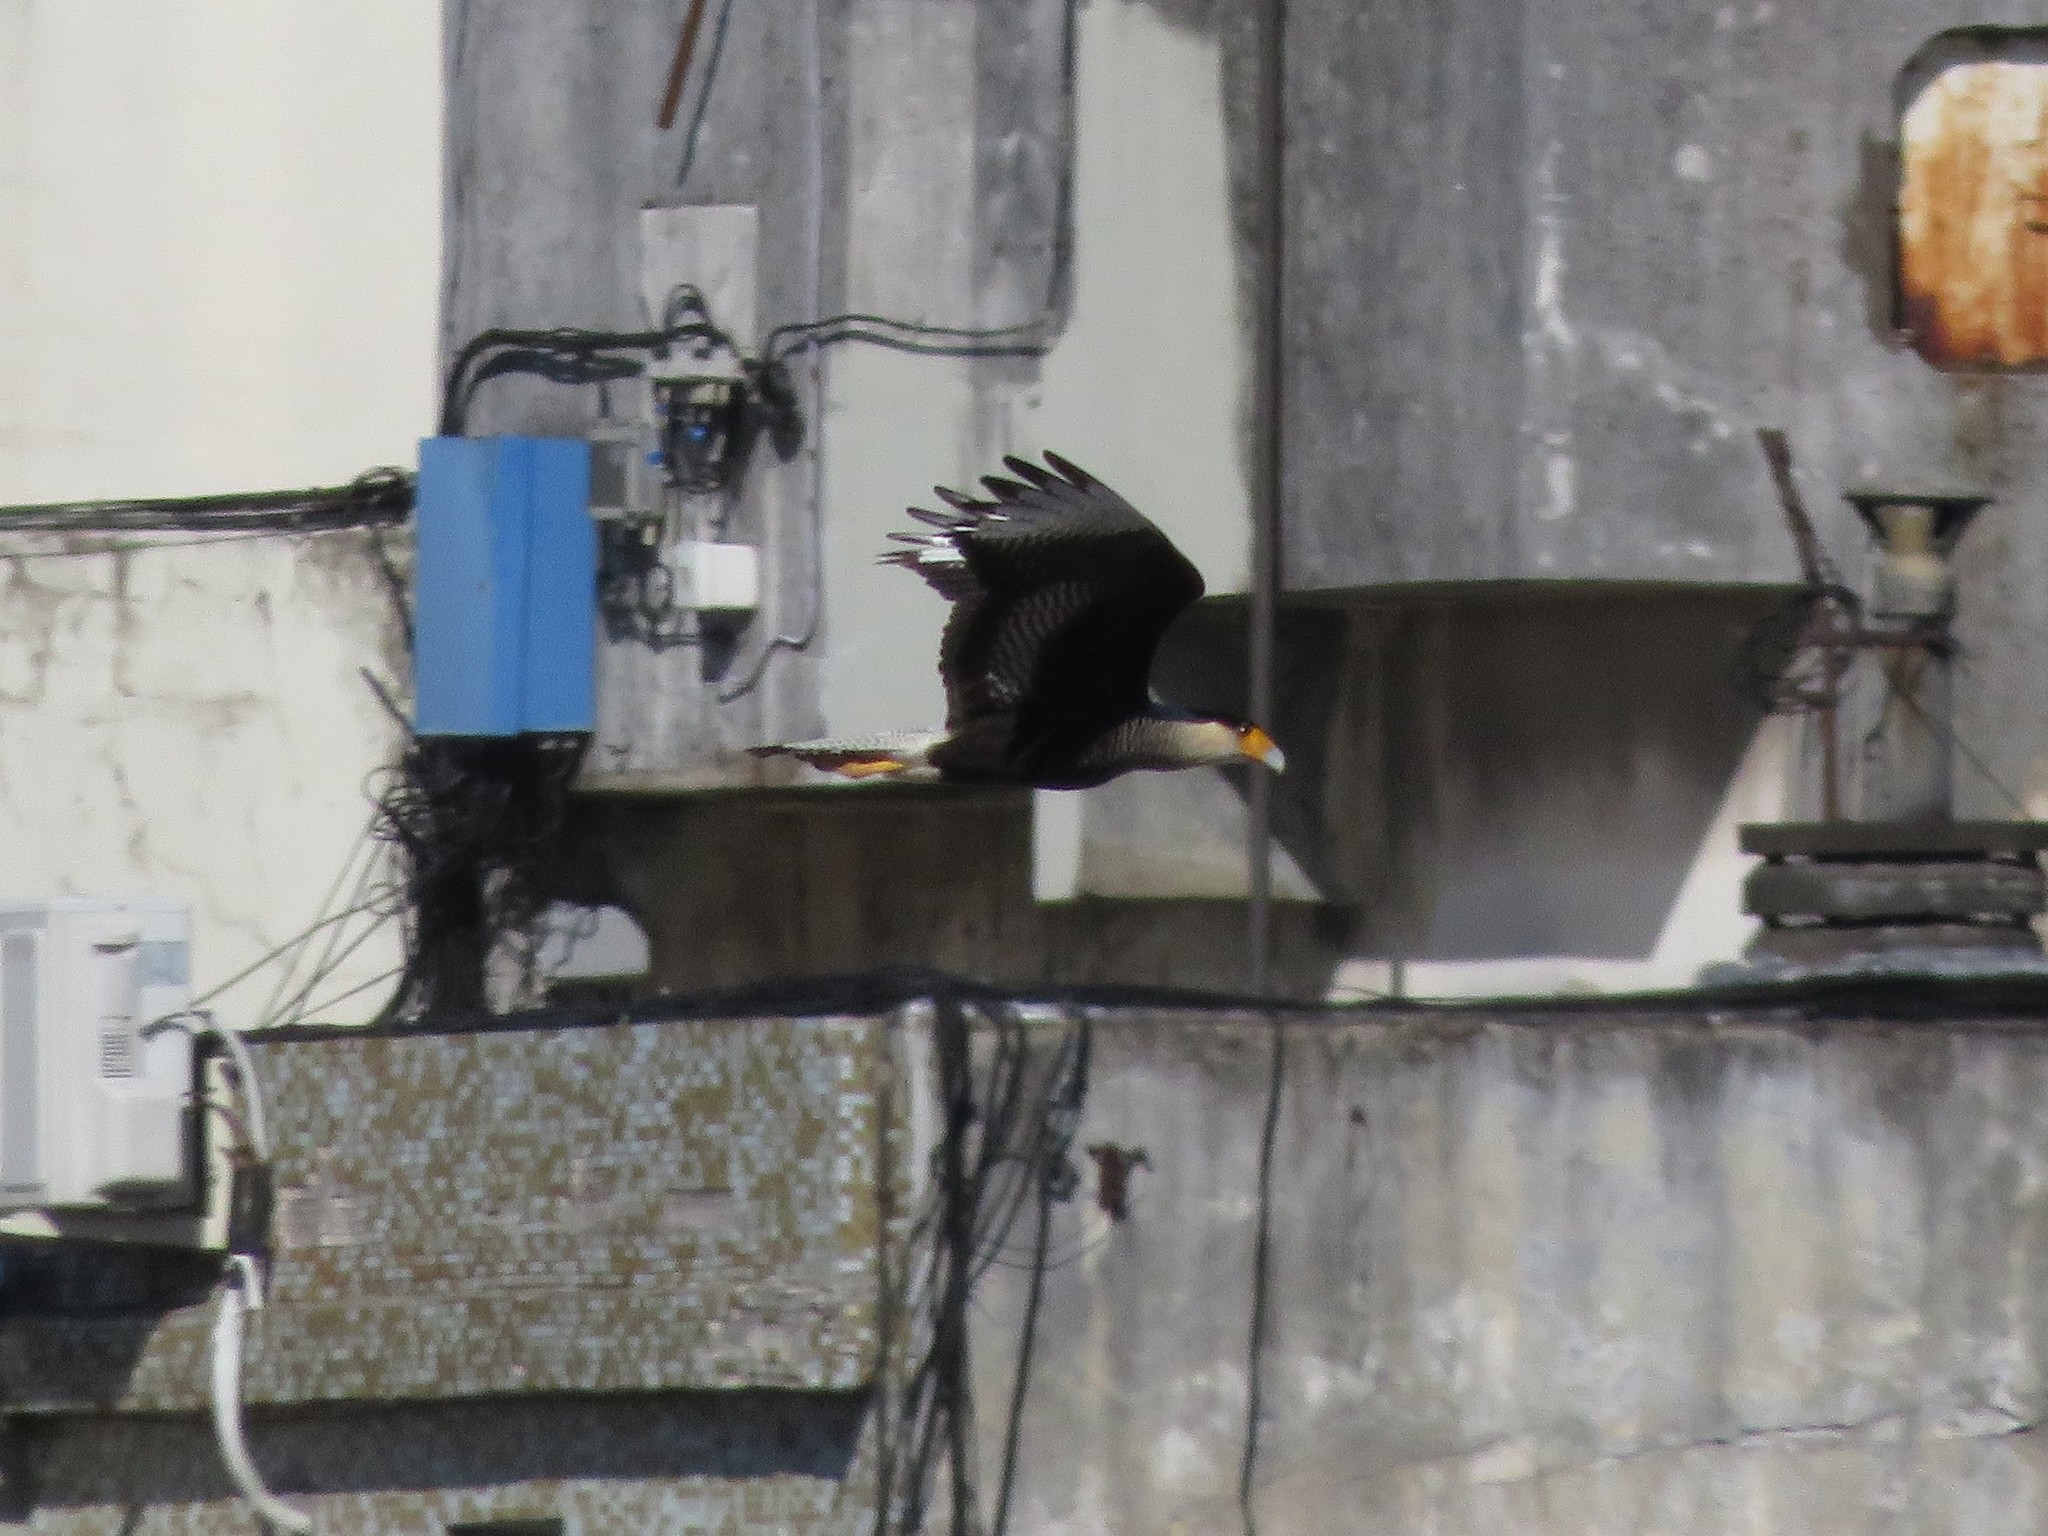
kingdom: Animalia
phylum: Chordata
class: Aves
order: Falconiformes
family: Falconidae
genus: Caracara
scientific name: Caracara plancus
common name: Southern caracara
